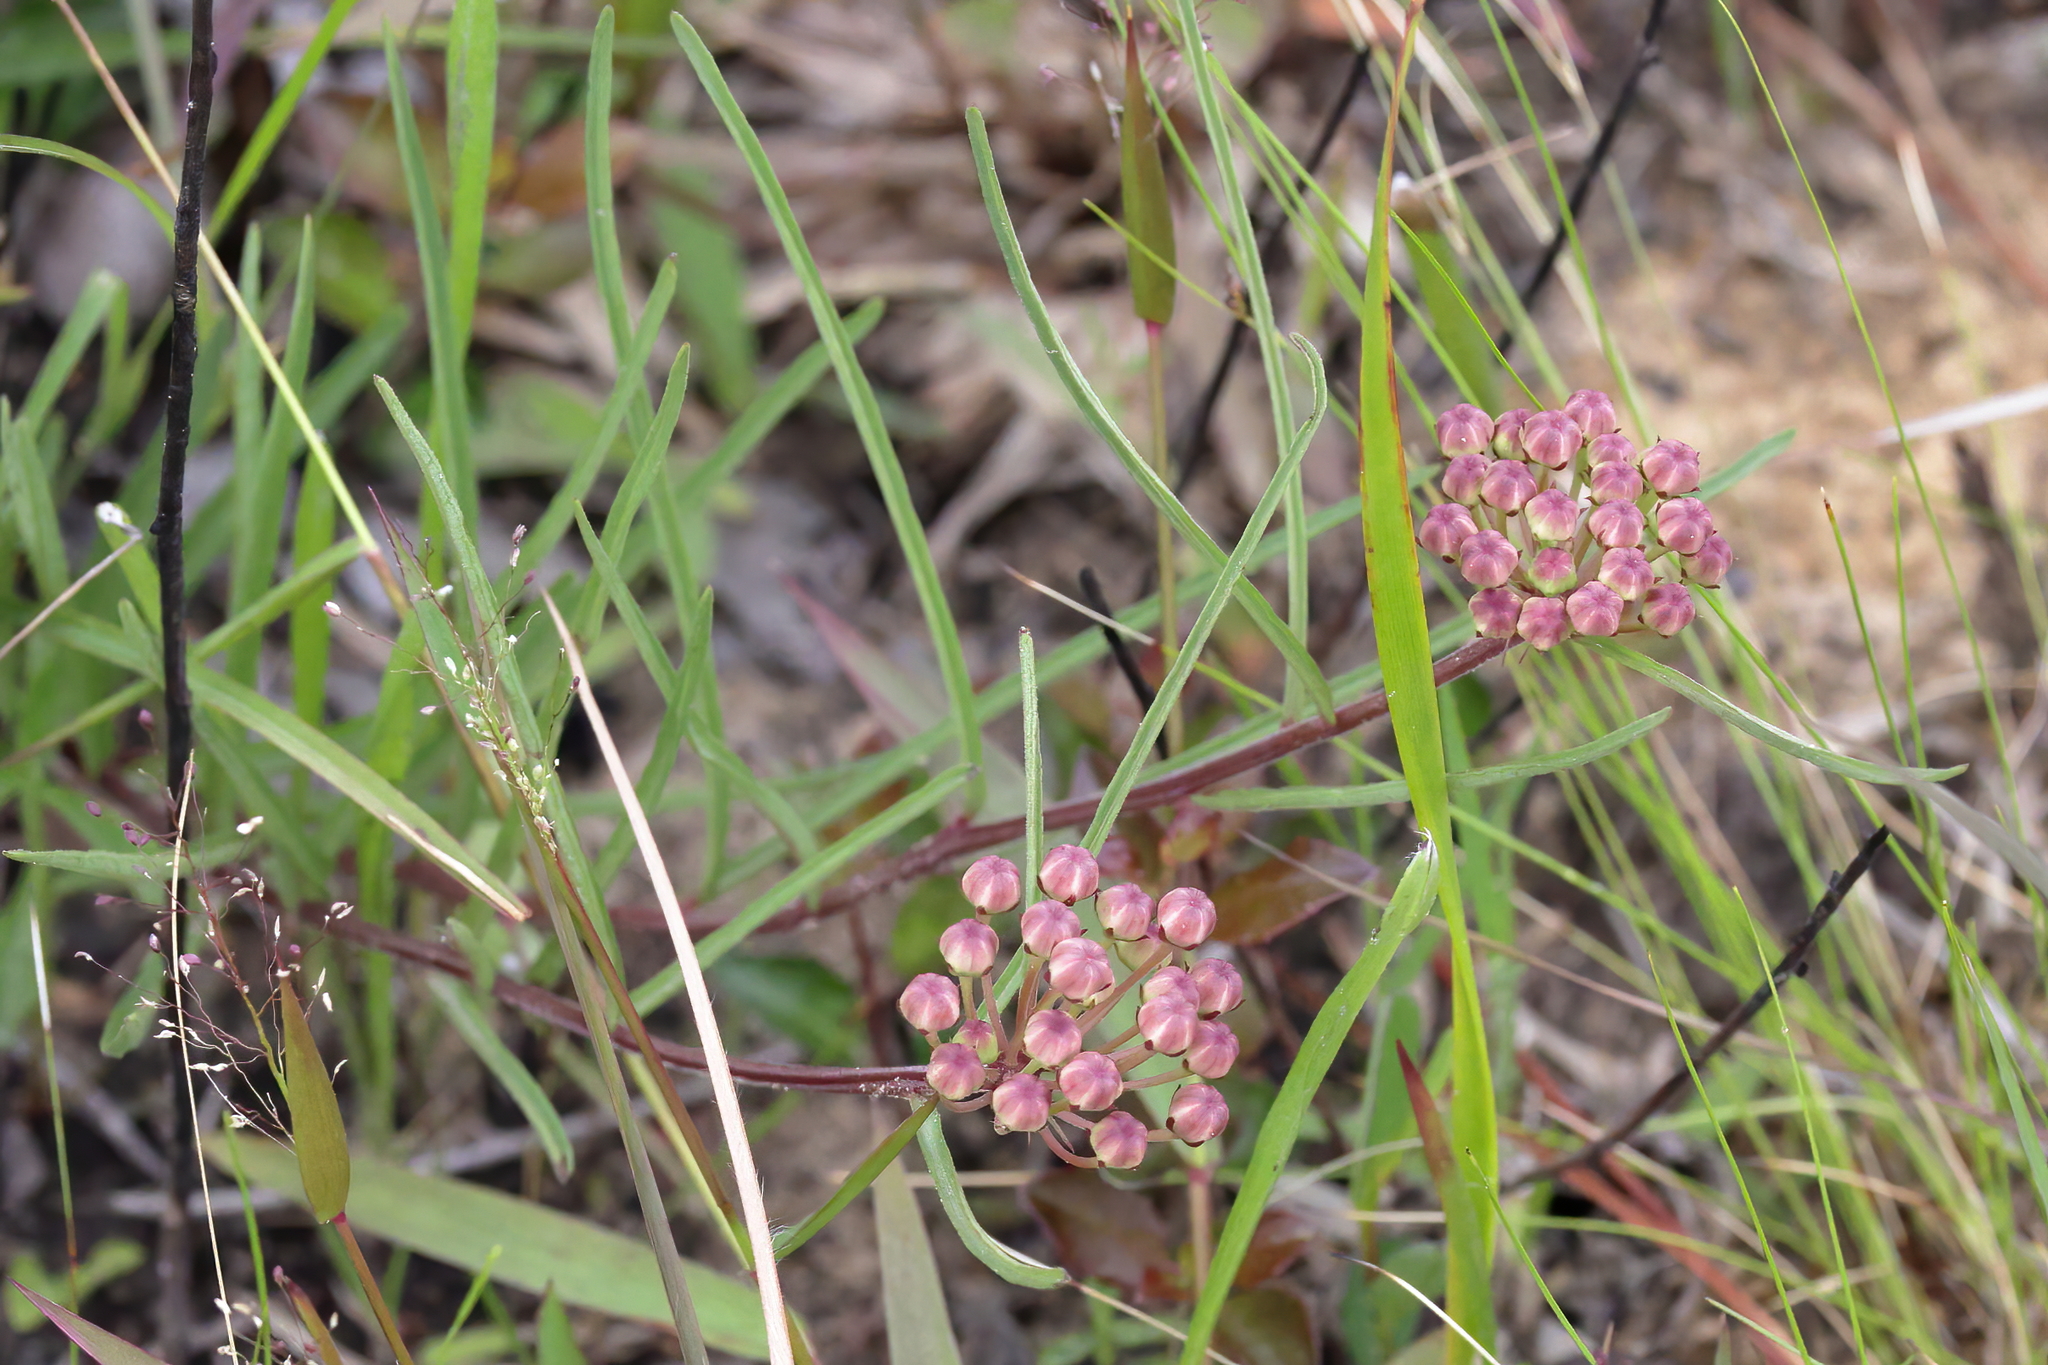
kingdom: Plantae
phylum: Tracheophyta
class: Magnoliopsida
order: Gentianales
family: Apocynaceae
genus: Asclepias
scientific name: Asclepias michauxii
